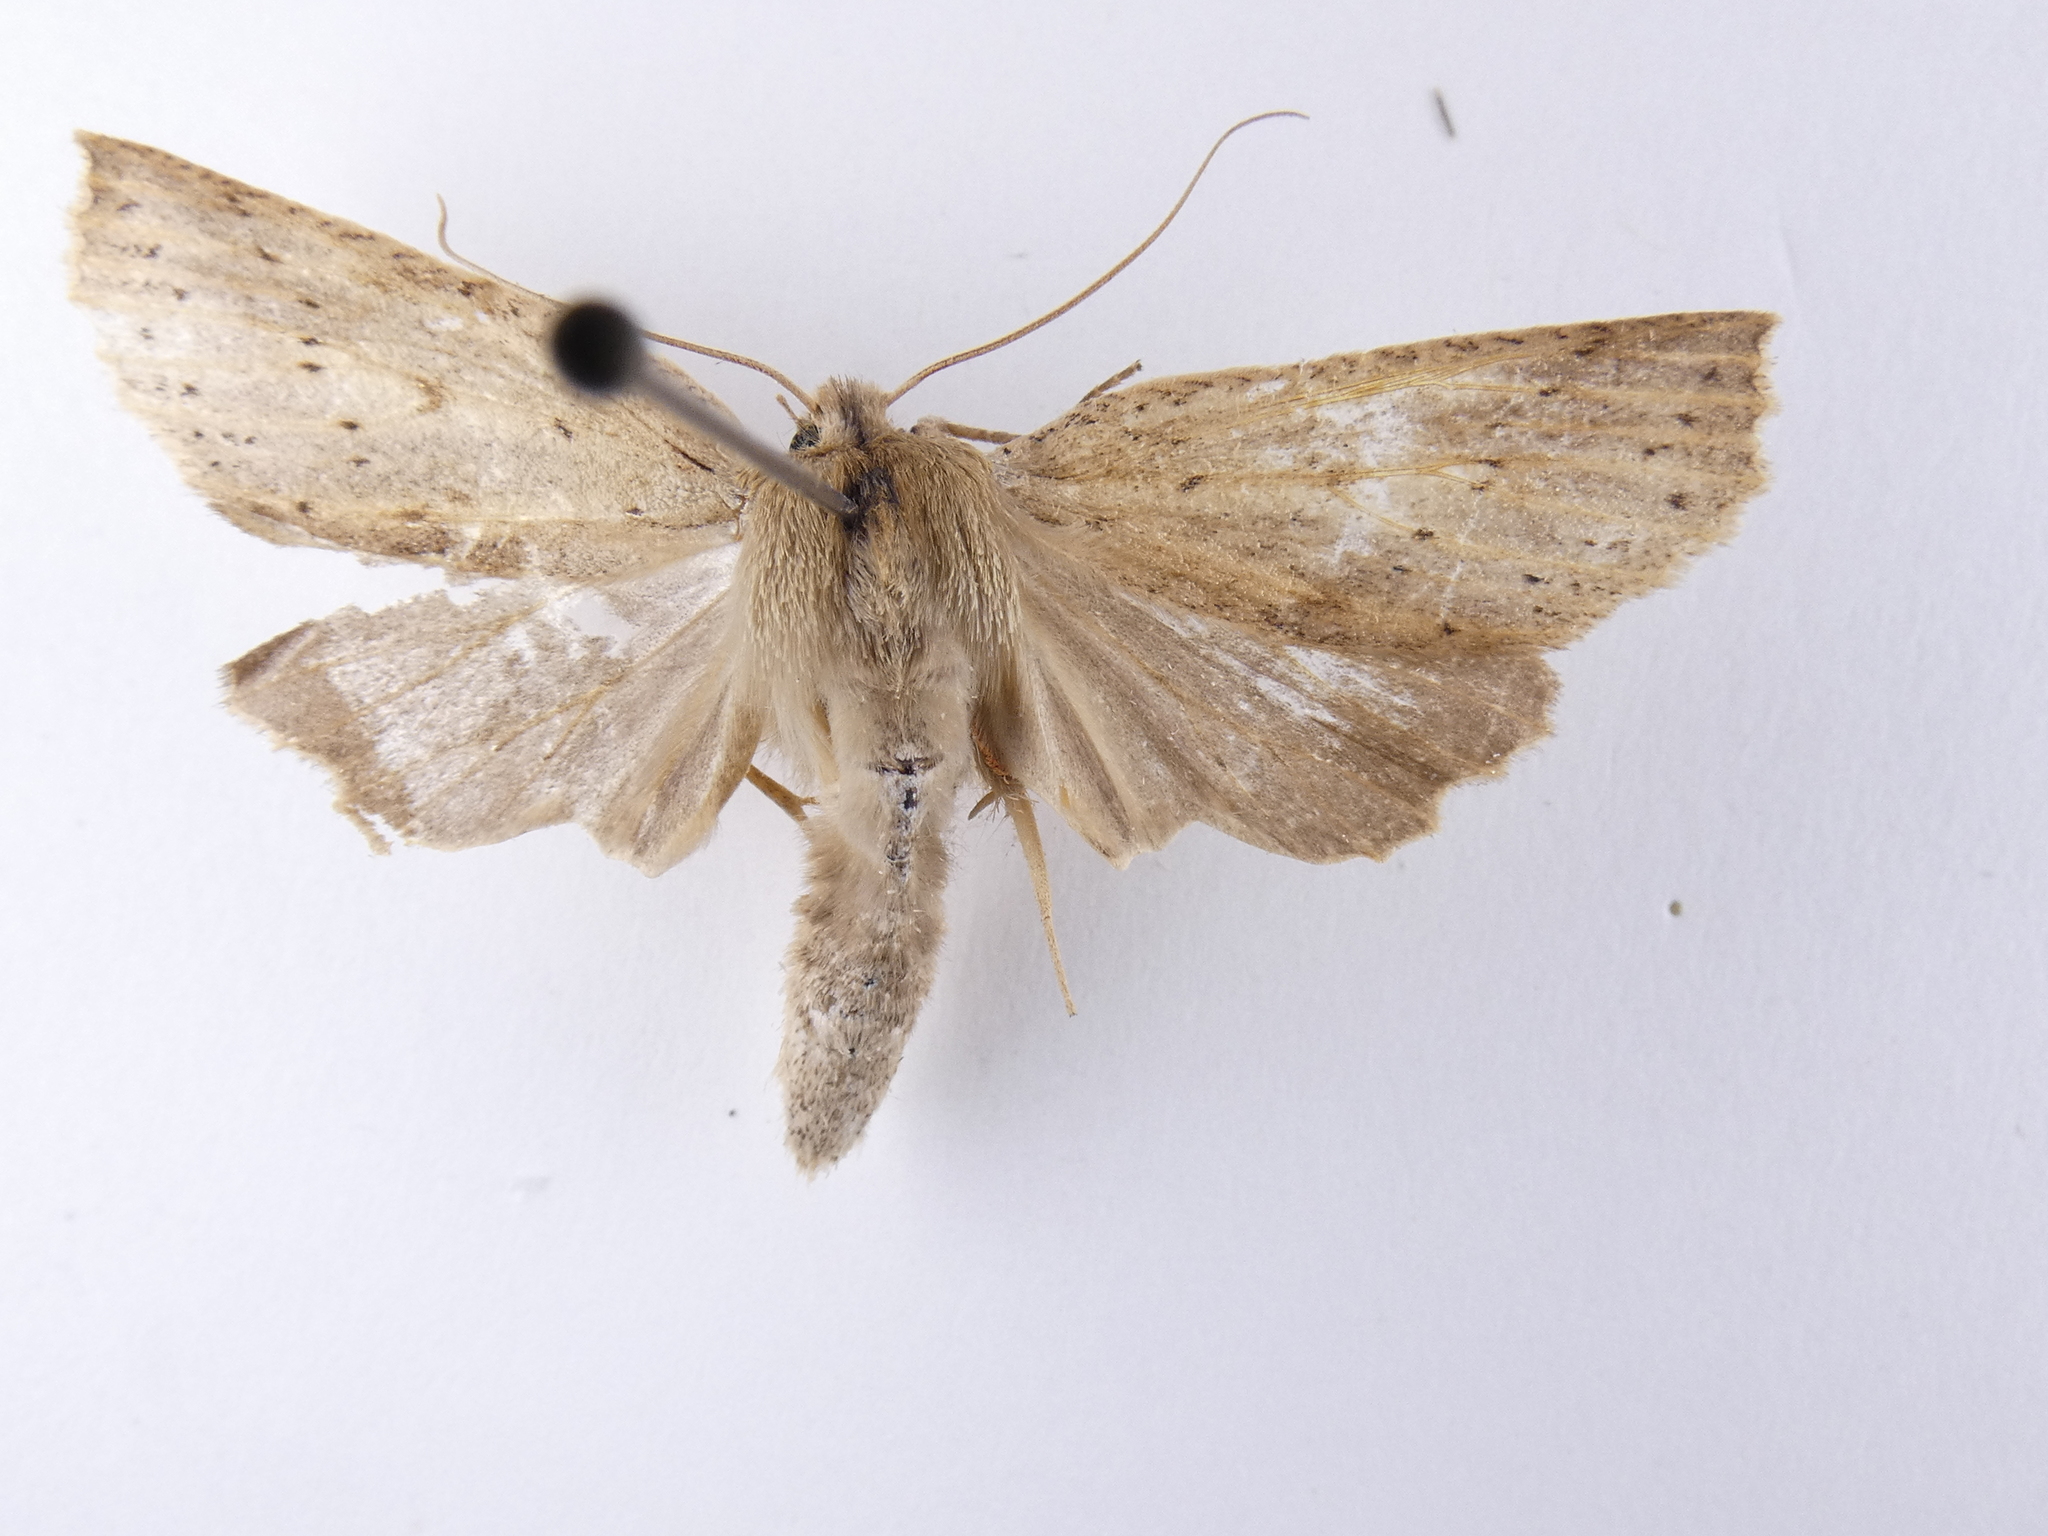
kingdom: Animalia
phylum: Arthropoda
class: Insecta
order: Lepidoptera
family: Geometridae
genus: Declana
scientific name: Declana leptomera
